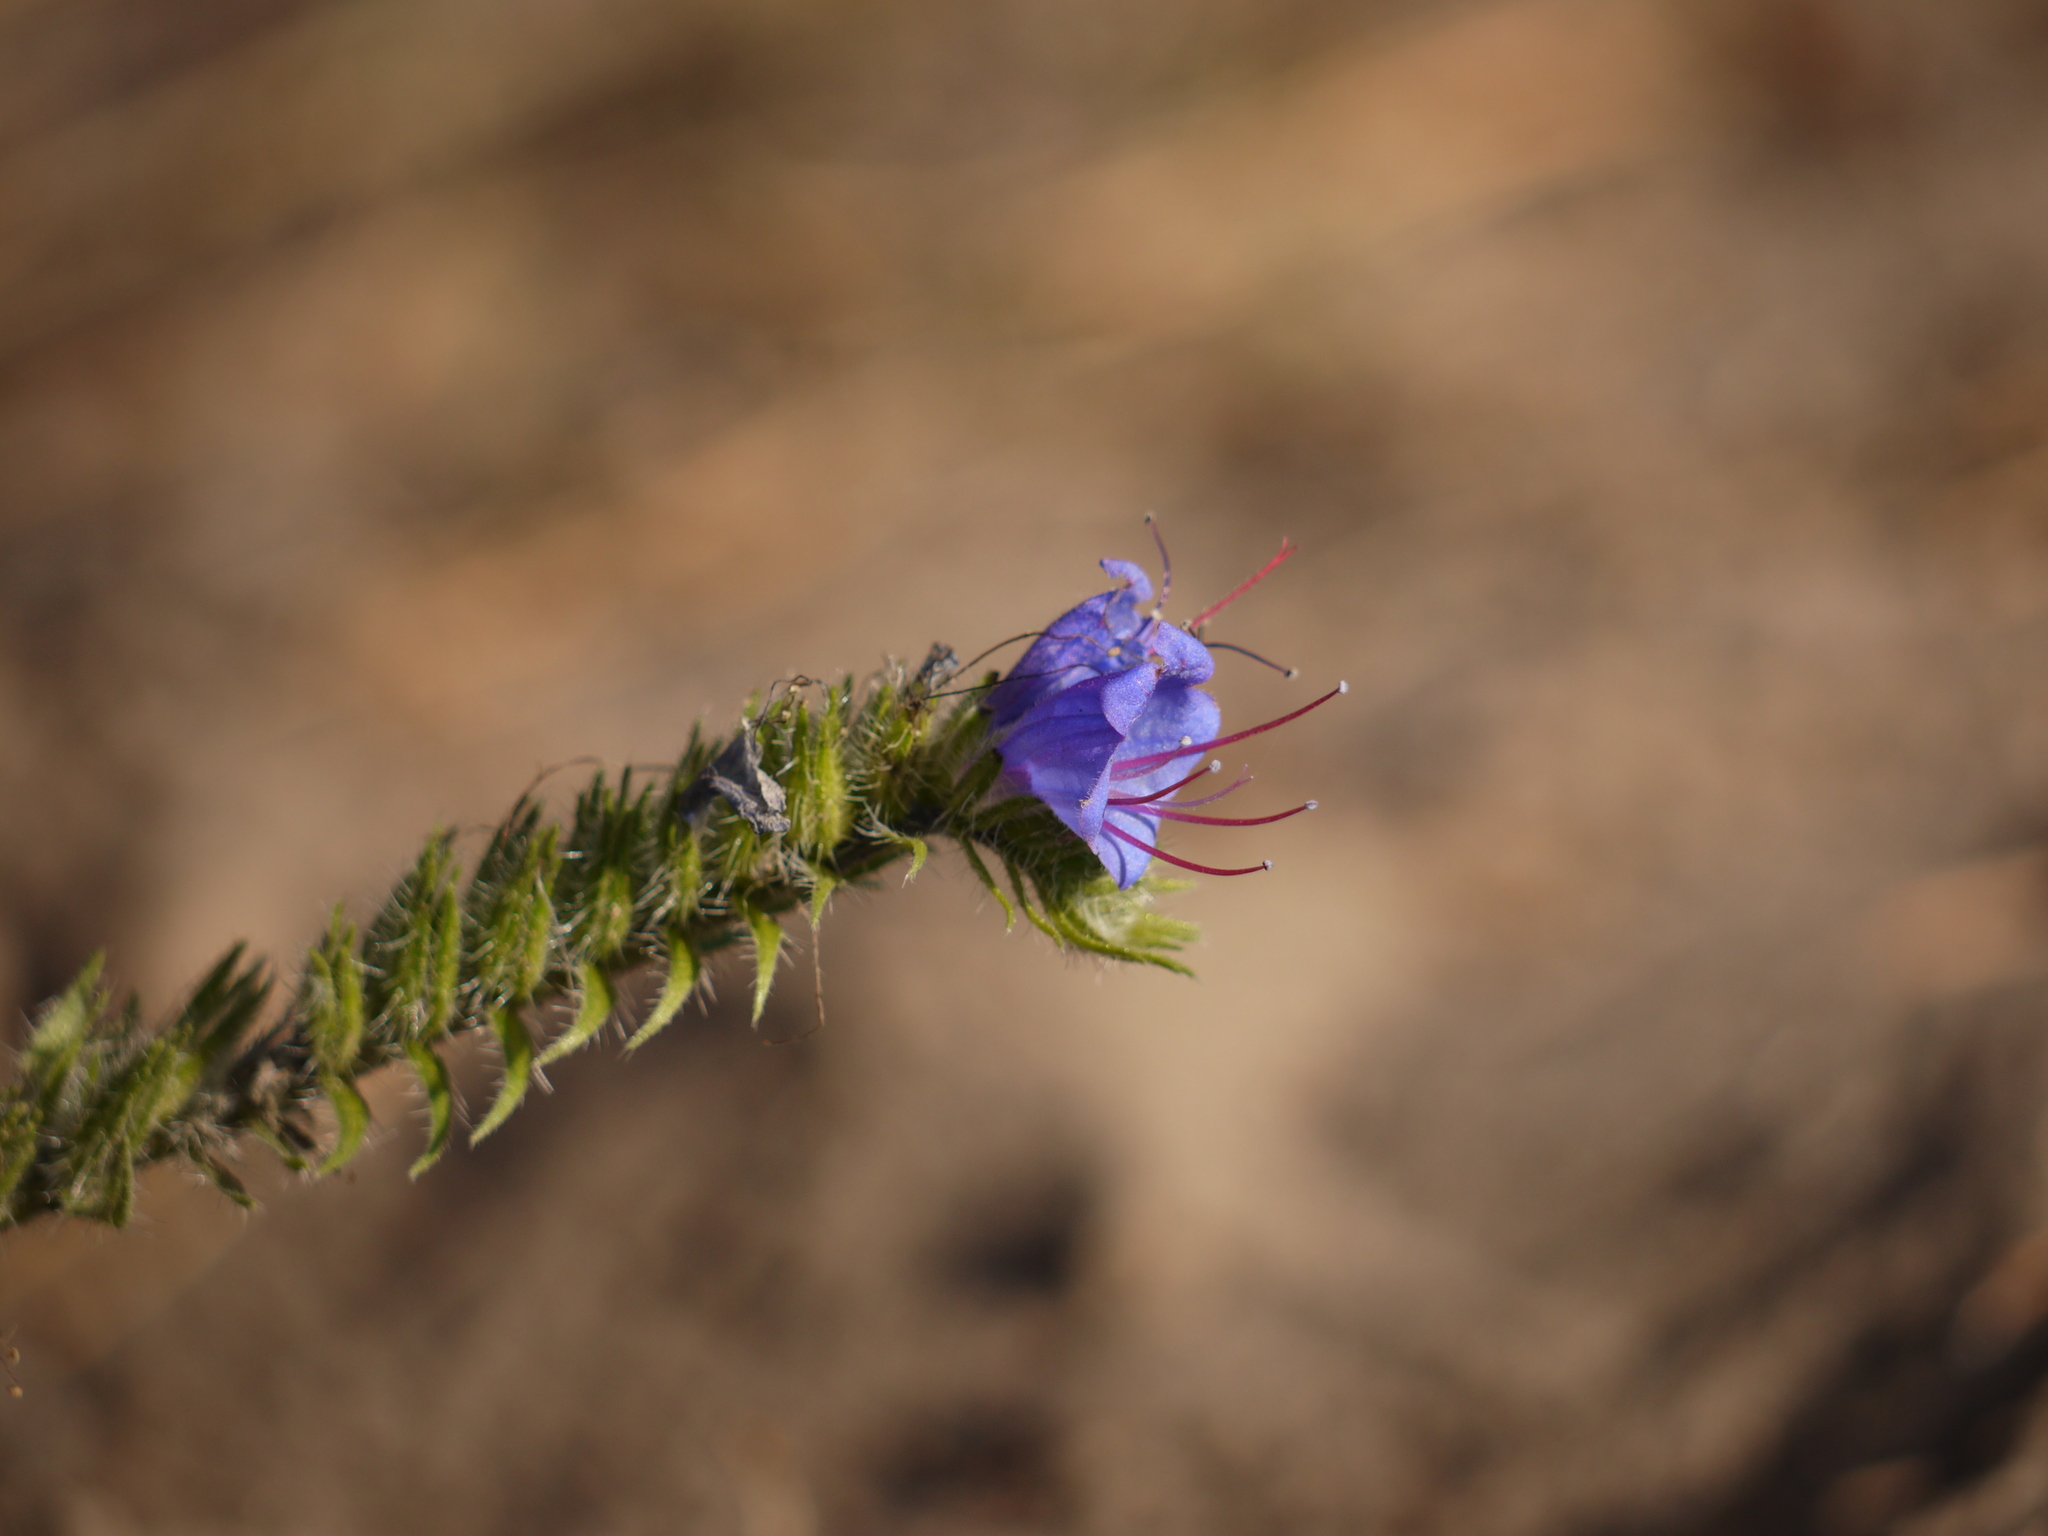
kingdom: Plantae
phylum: Tracheophyta
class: Magnoliopsida
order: Boraginales
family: Boraginaceae
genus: Echium
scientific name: Echium vulgare
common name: Common viper's bugloss
